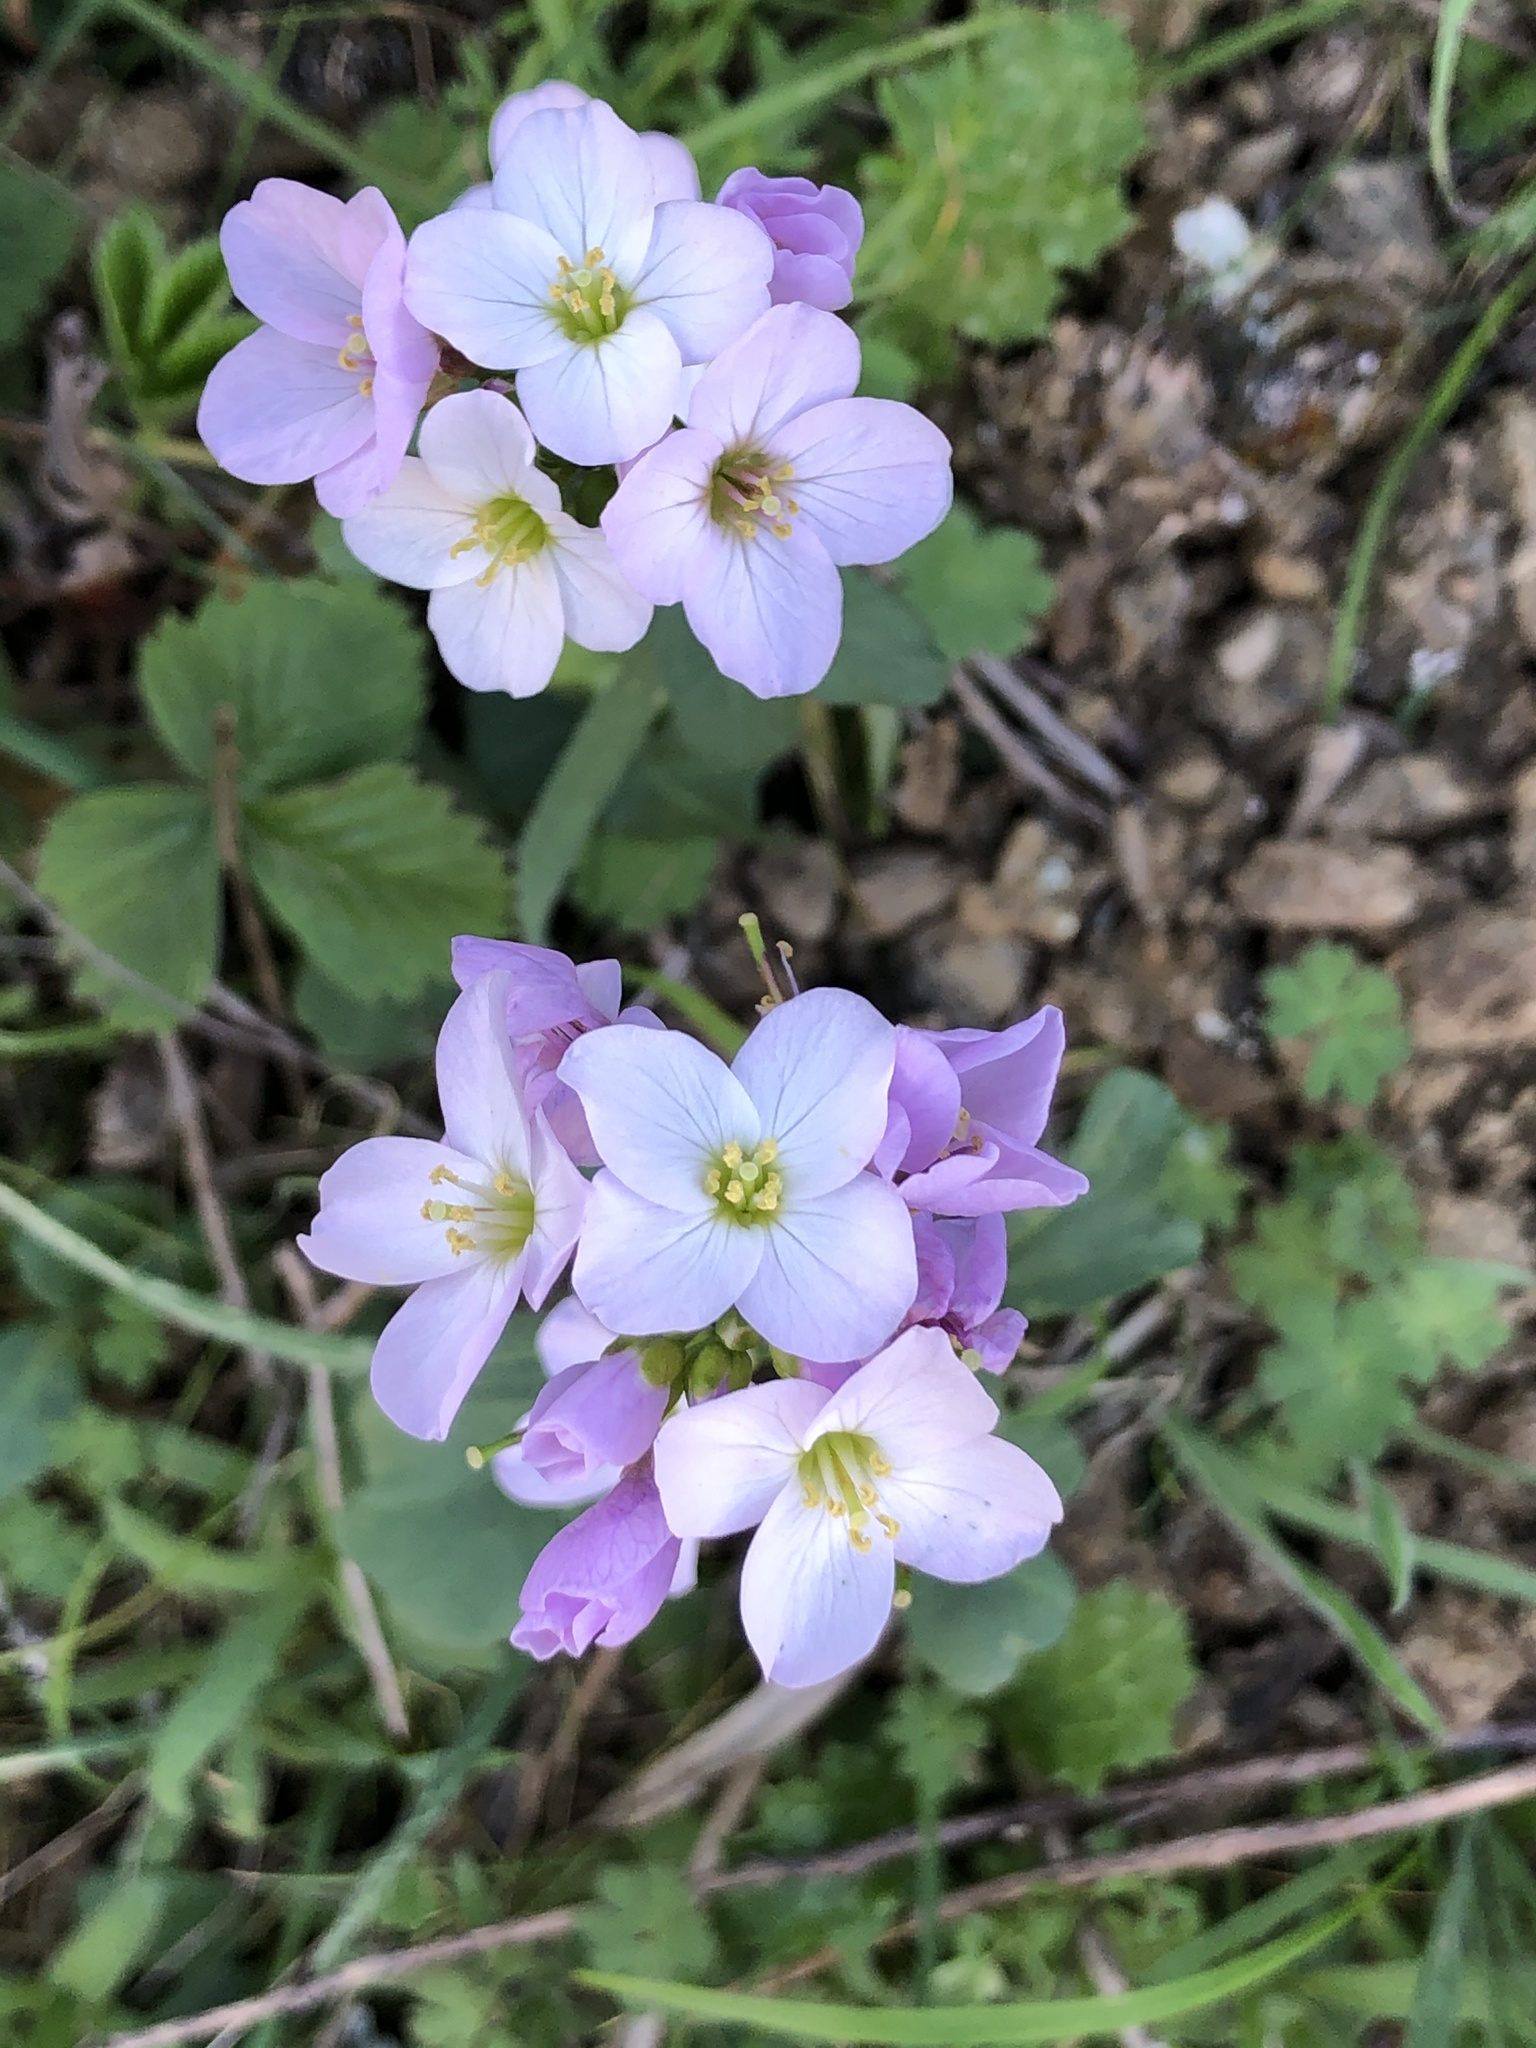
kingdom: Plantae
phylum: Tracheophyta
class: Magnoliopsida
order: Brassicales
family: Brassicaceae
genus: Cardamine
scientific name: Cardamine californica
